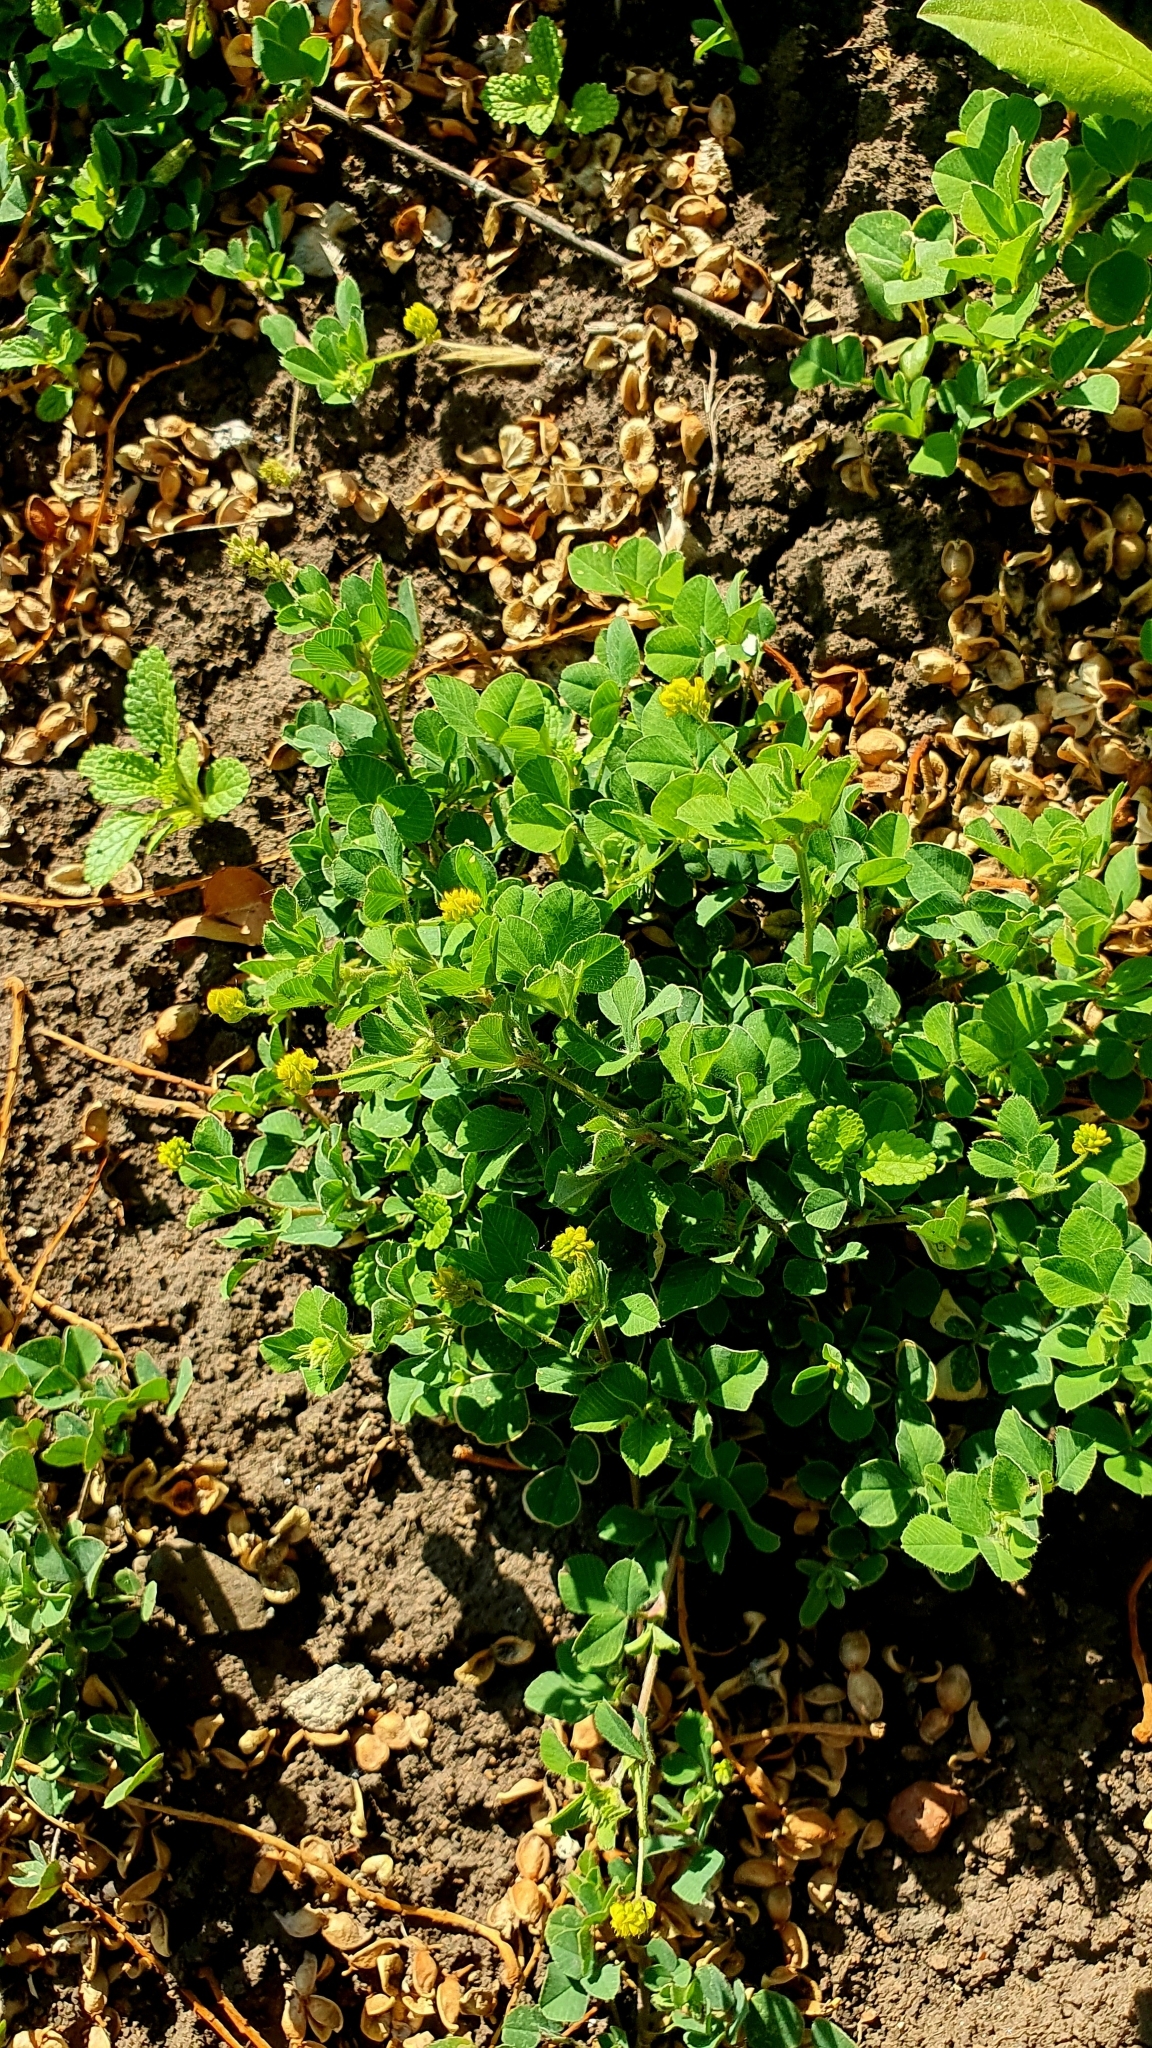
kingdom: Plantae
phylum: Tracheophyta
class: Magnoliopsida
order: Fabales
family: Fabaceae
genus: Medicago
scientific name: Medicago lupulina
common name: Black medick
